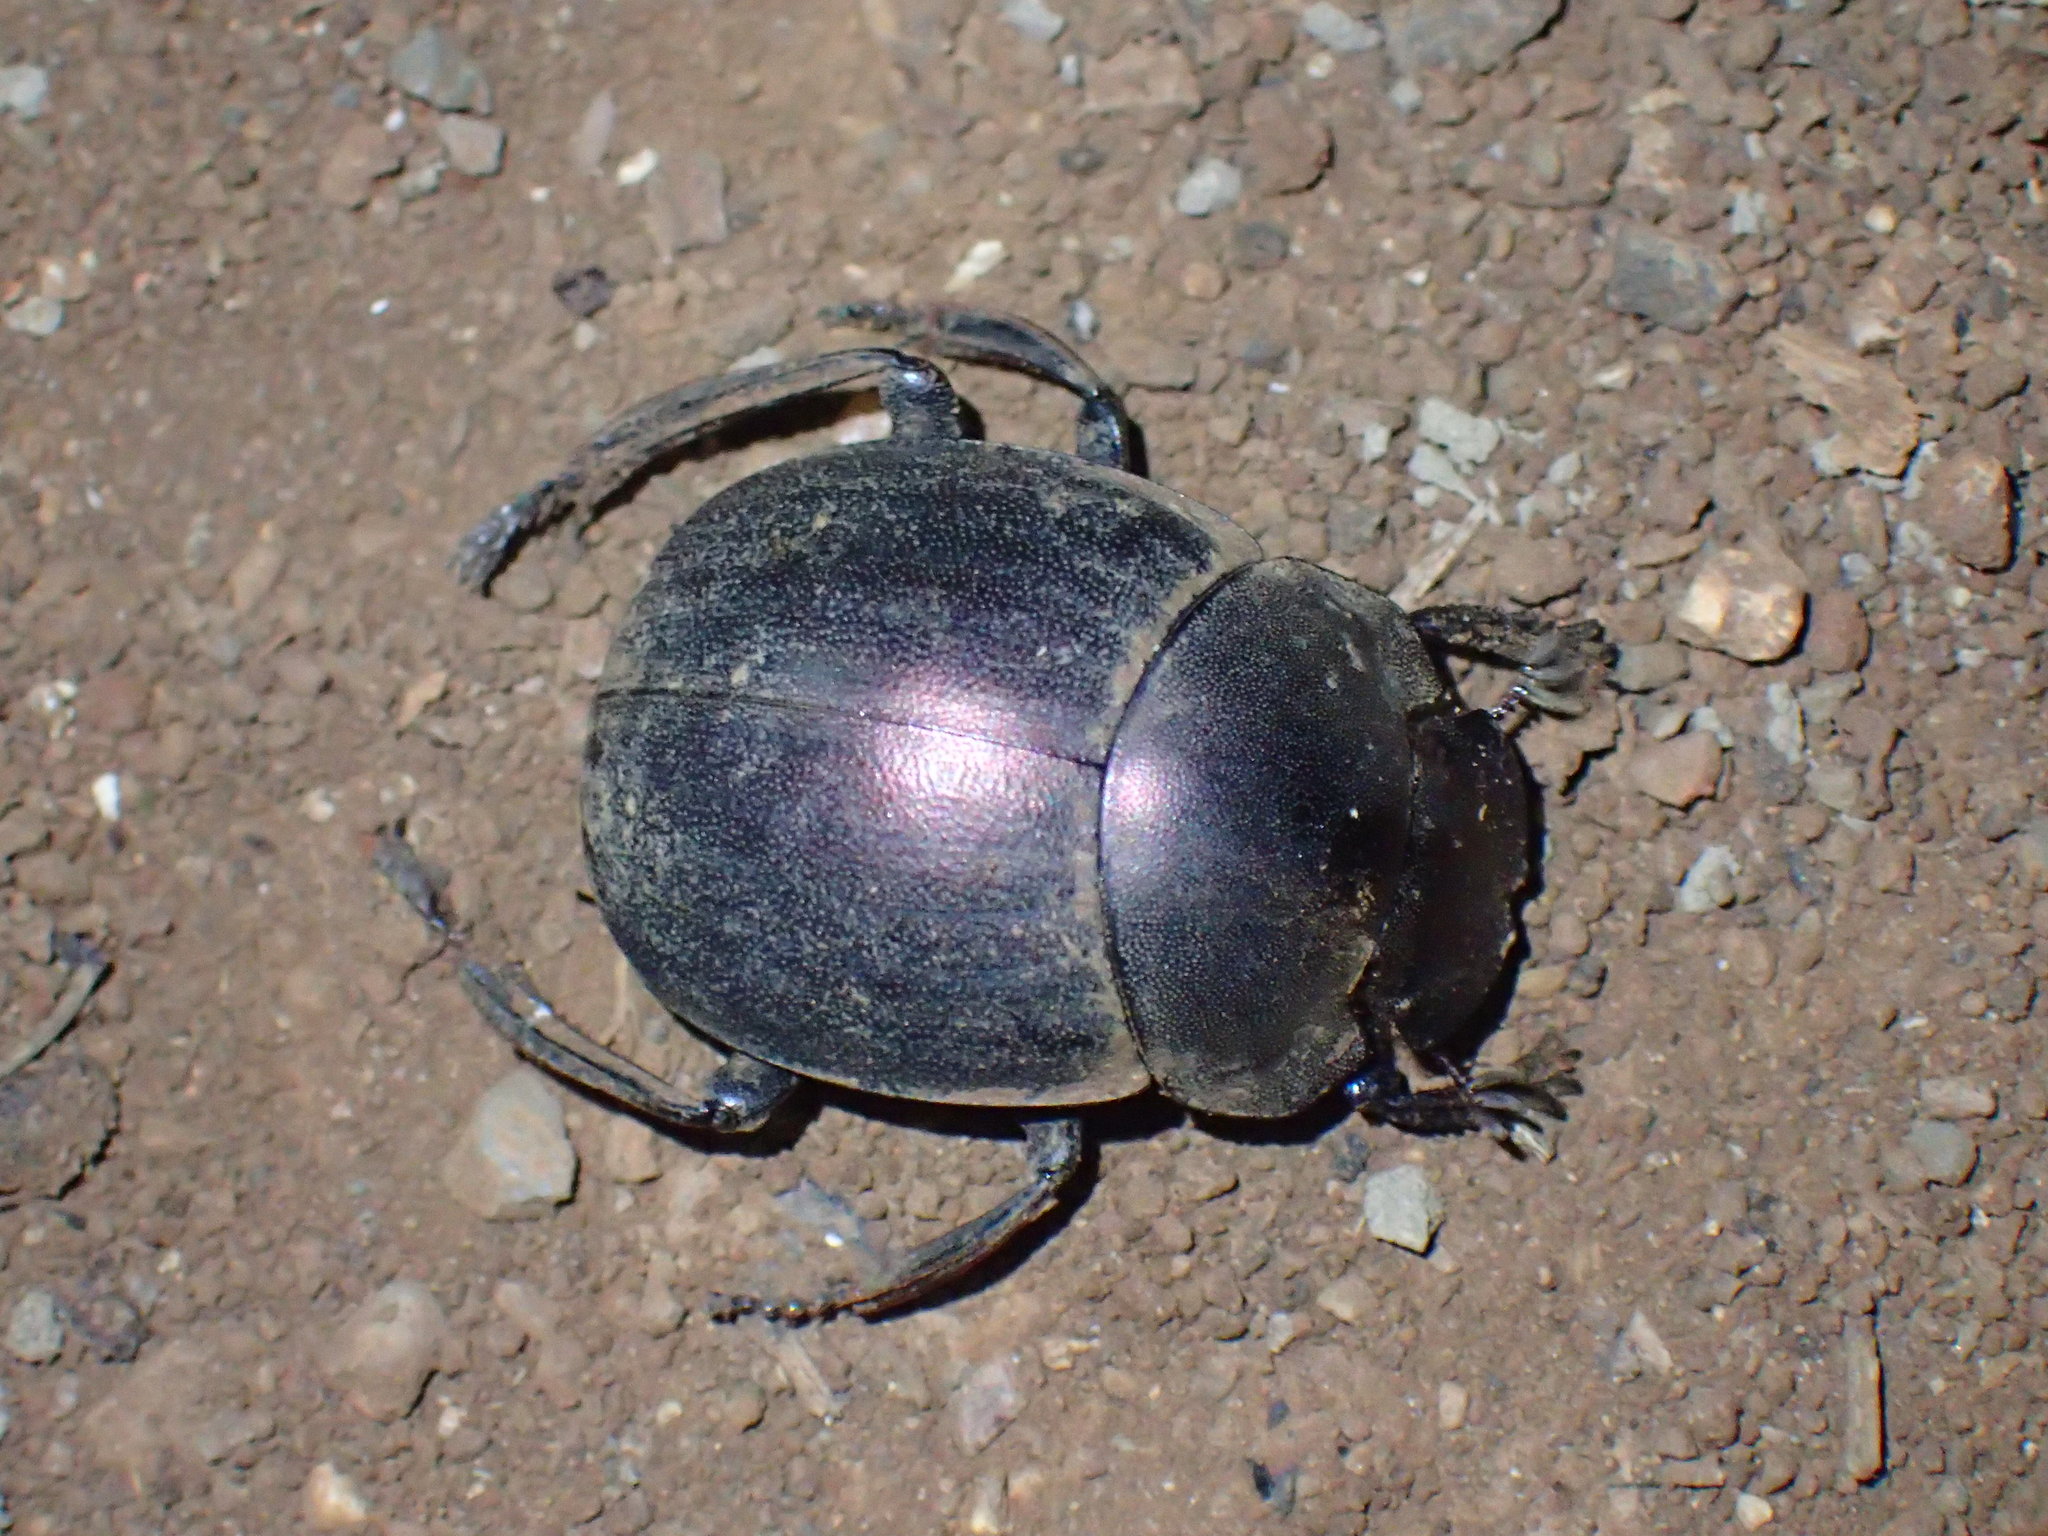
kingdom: Animalia
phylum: Arthropoda
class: Insecta
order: Coleoptera
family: Scarabaeidae
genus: Chalconotus
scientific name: Chalconotus convexus
